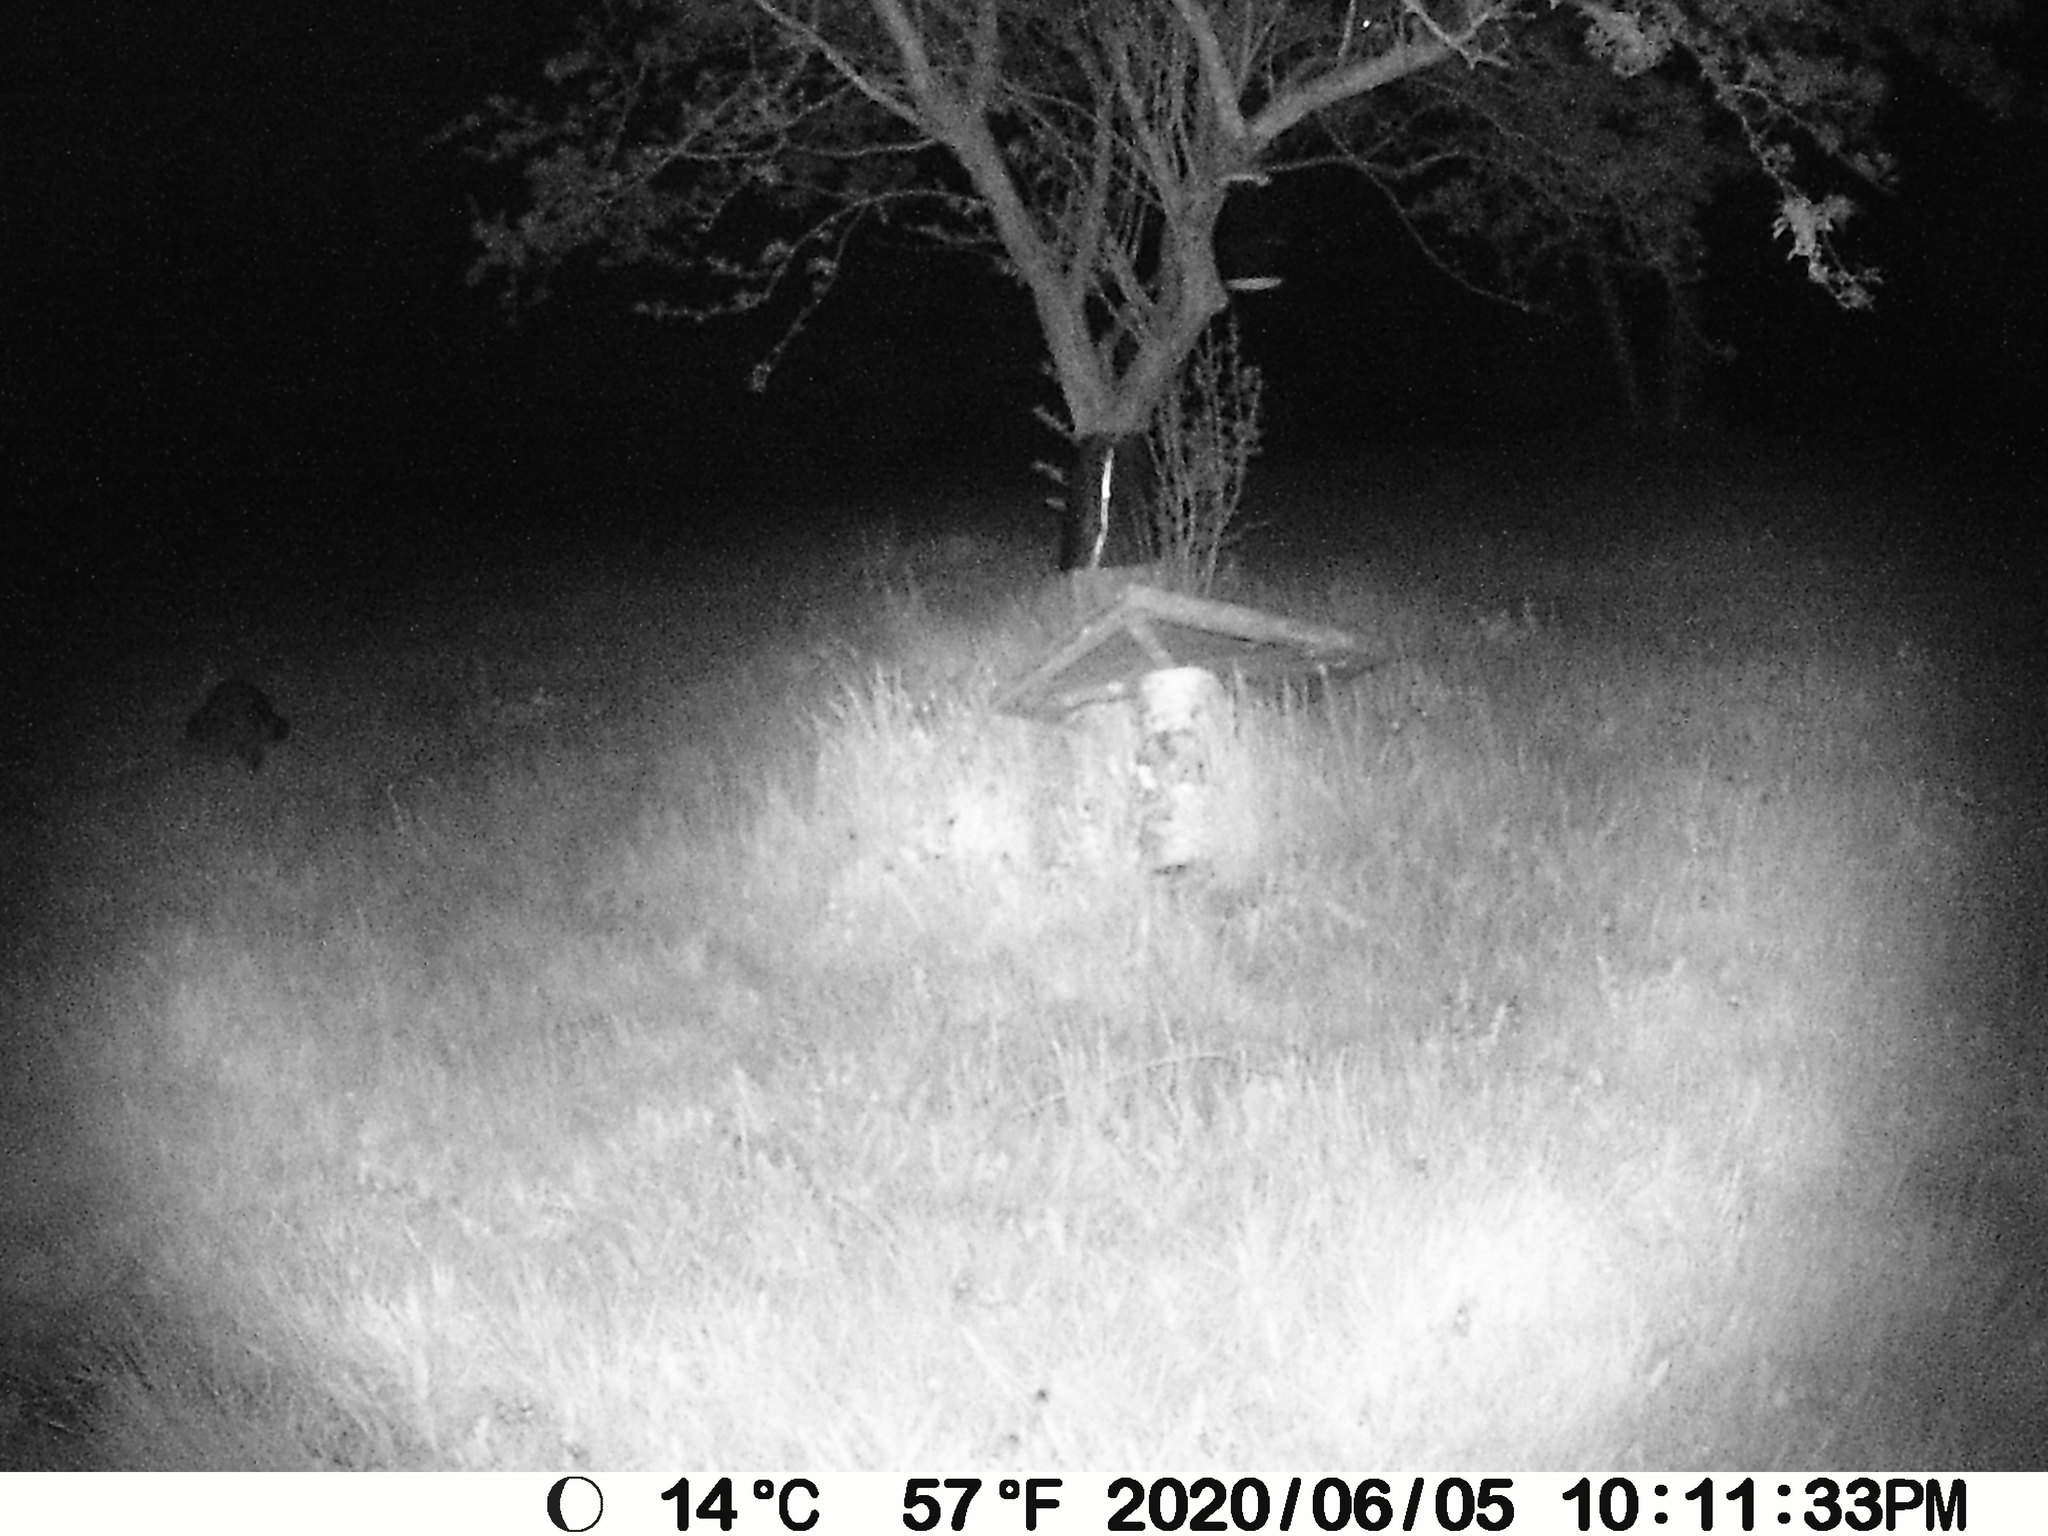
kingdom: Animalia
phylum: Chordata
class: Mammalia
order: Carnivora
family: Procyonidae
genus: Procyon
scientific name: Procyon lotor
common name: Raccoon
